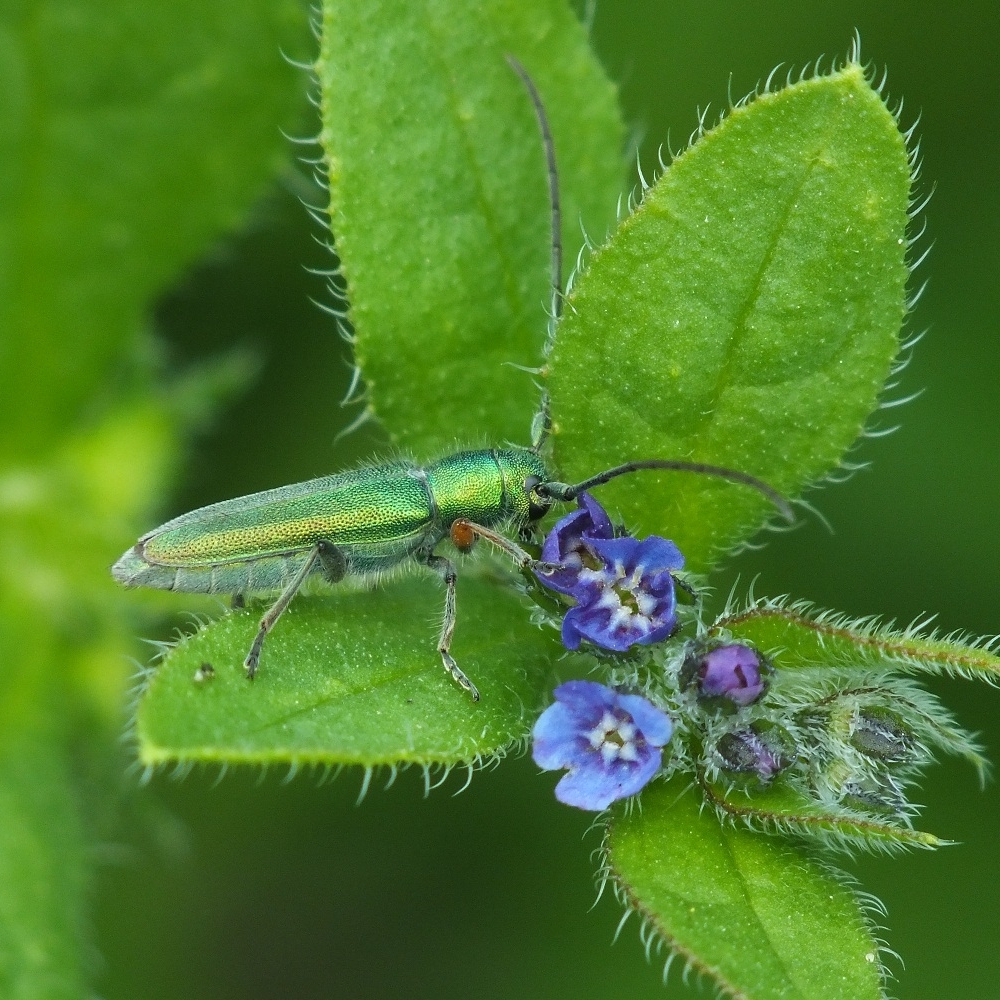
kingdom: Animalia
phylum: Arthropoda
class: Insecta
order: Coleoptera
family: Cerambycidae
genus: Phytoecia
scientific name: Phytoecia caerulea
